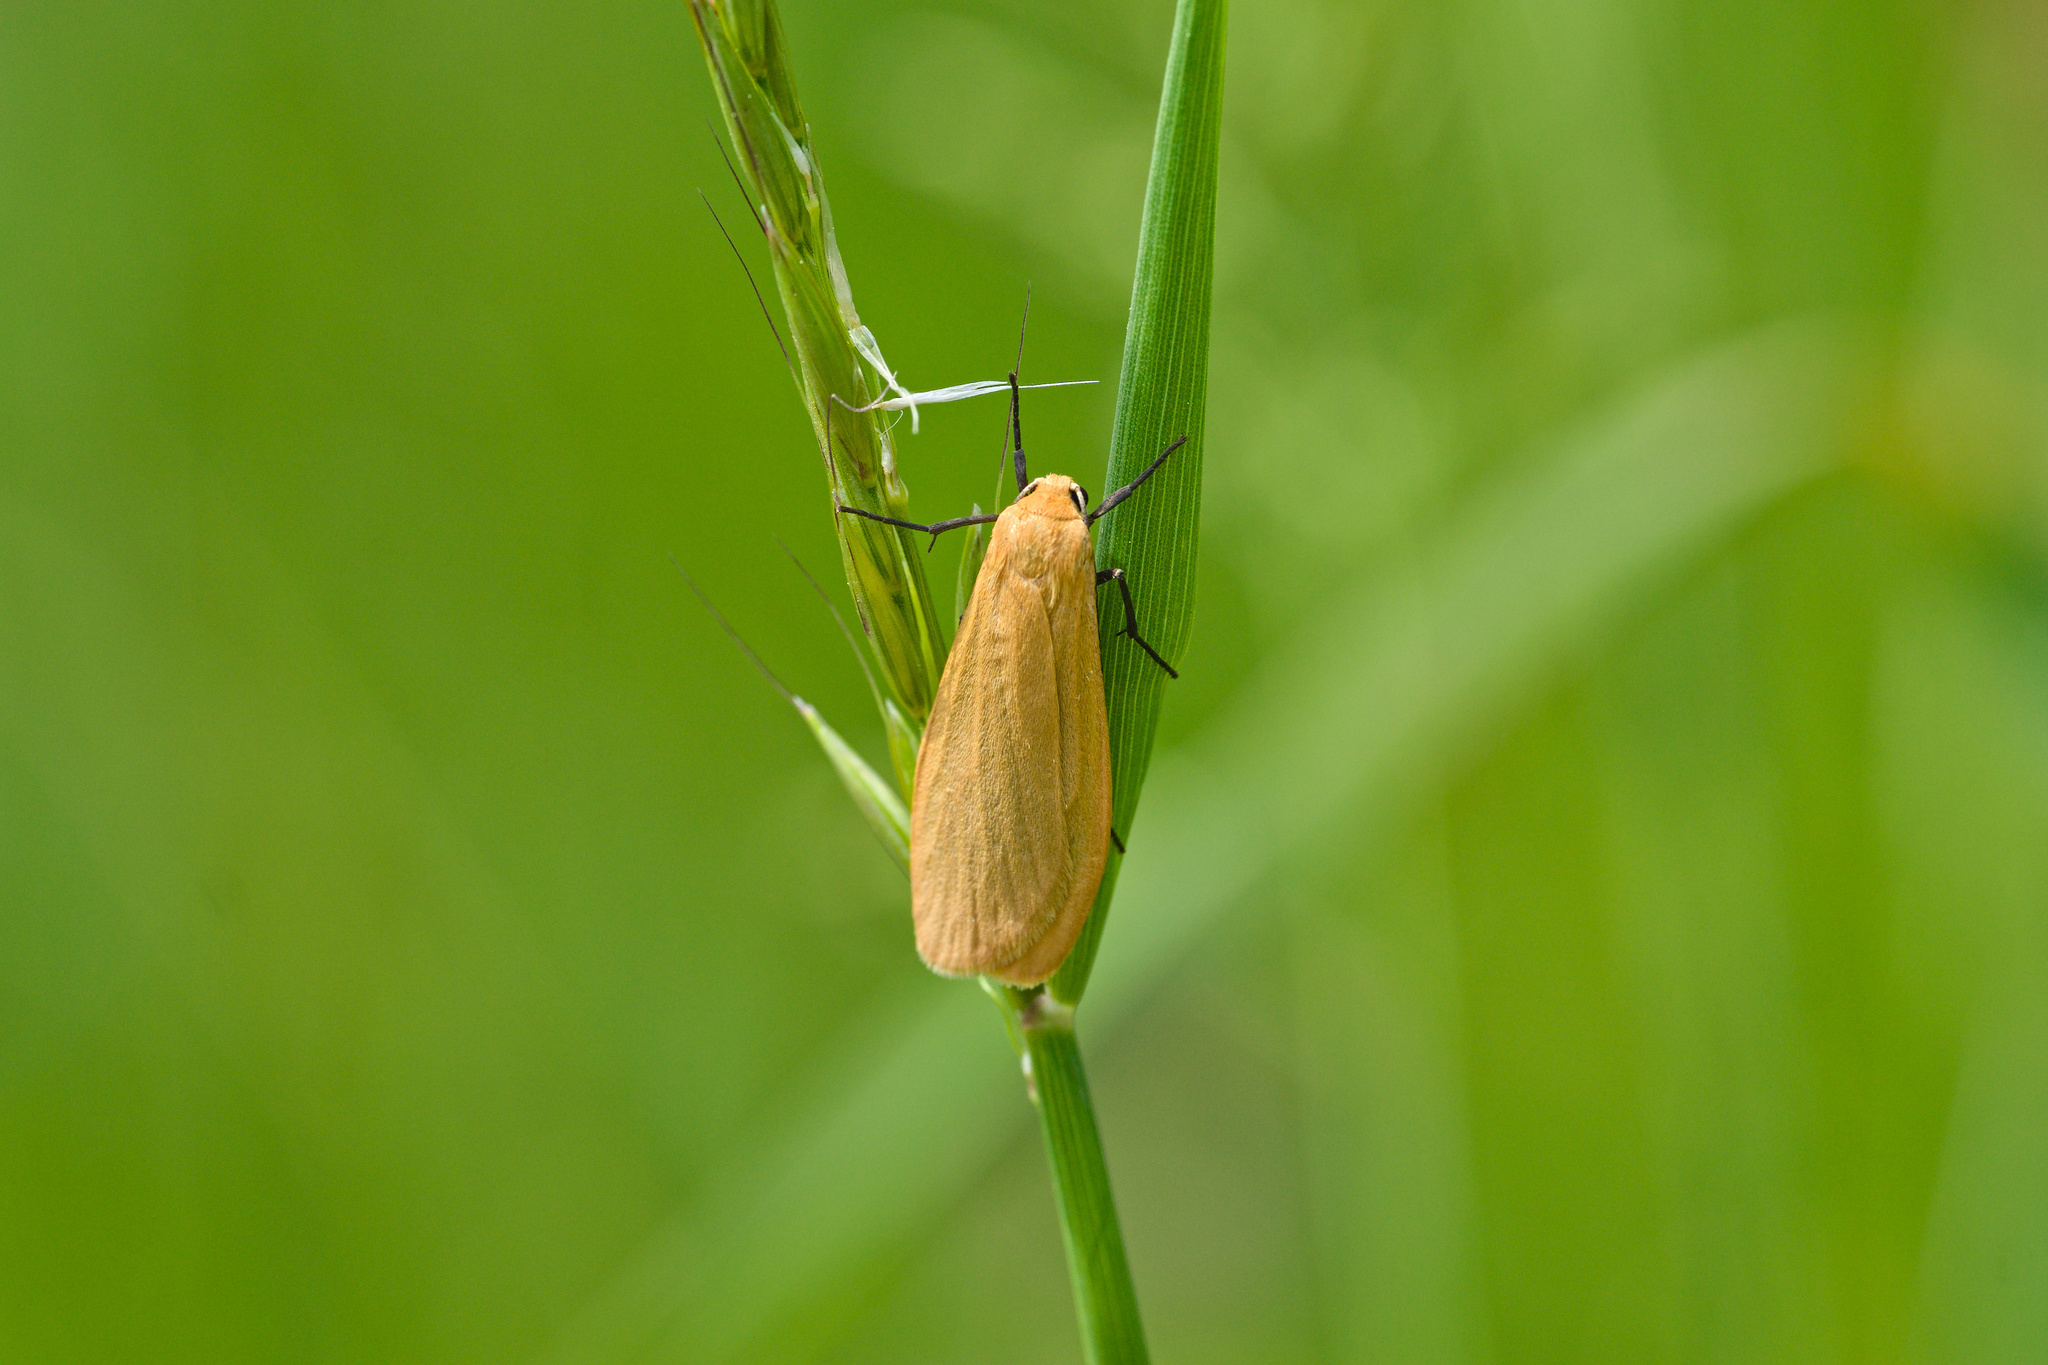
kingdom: Animalia
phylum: Arthropoda
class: Insecta
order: Lepidoptera
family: Erebidae
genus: Wittia
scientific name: Wittia sororcula
